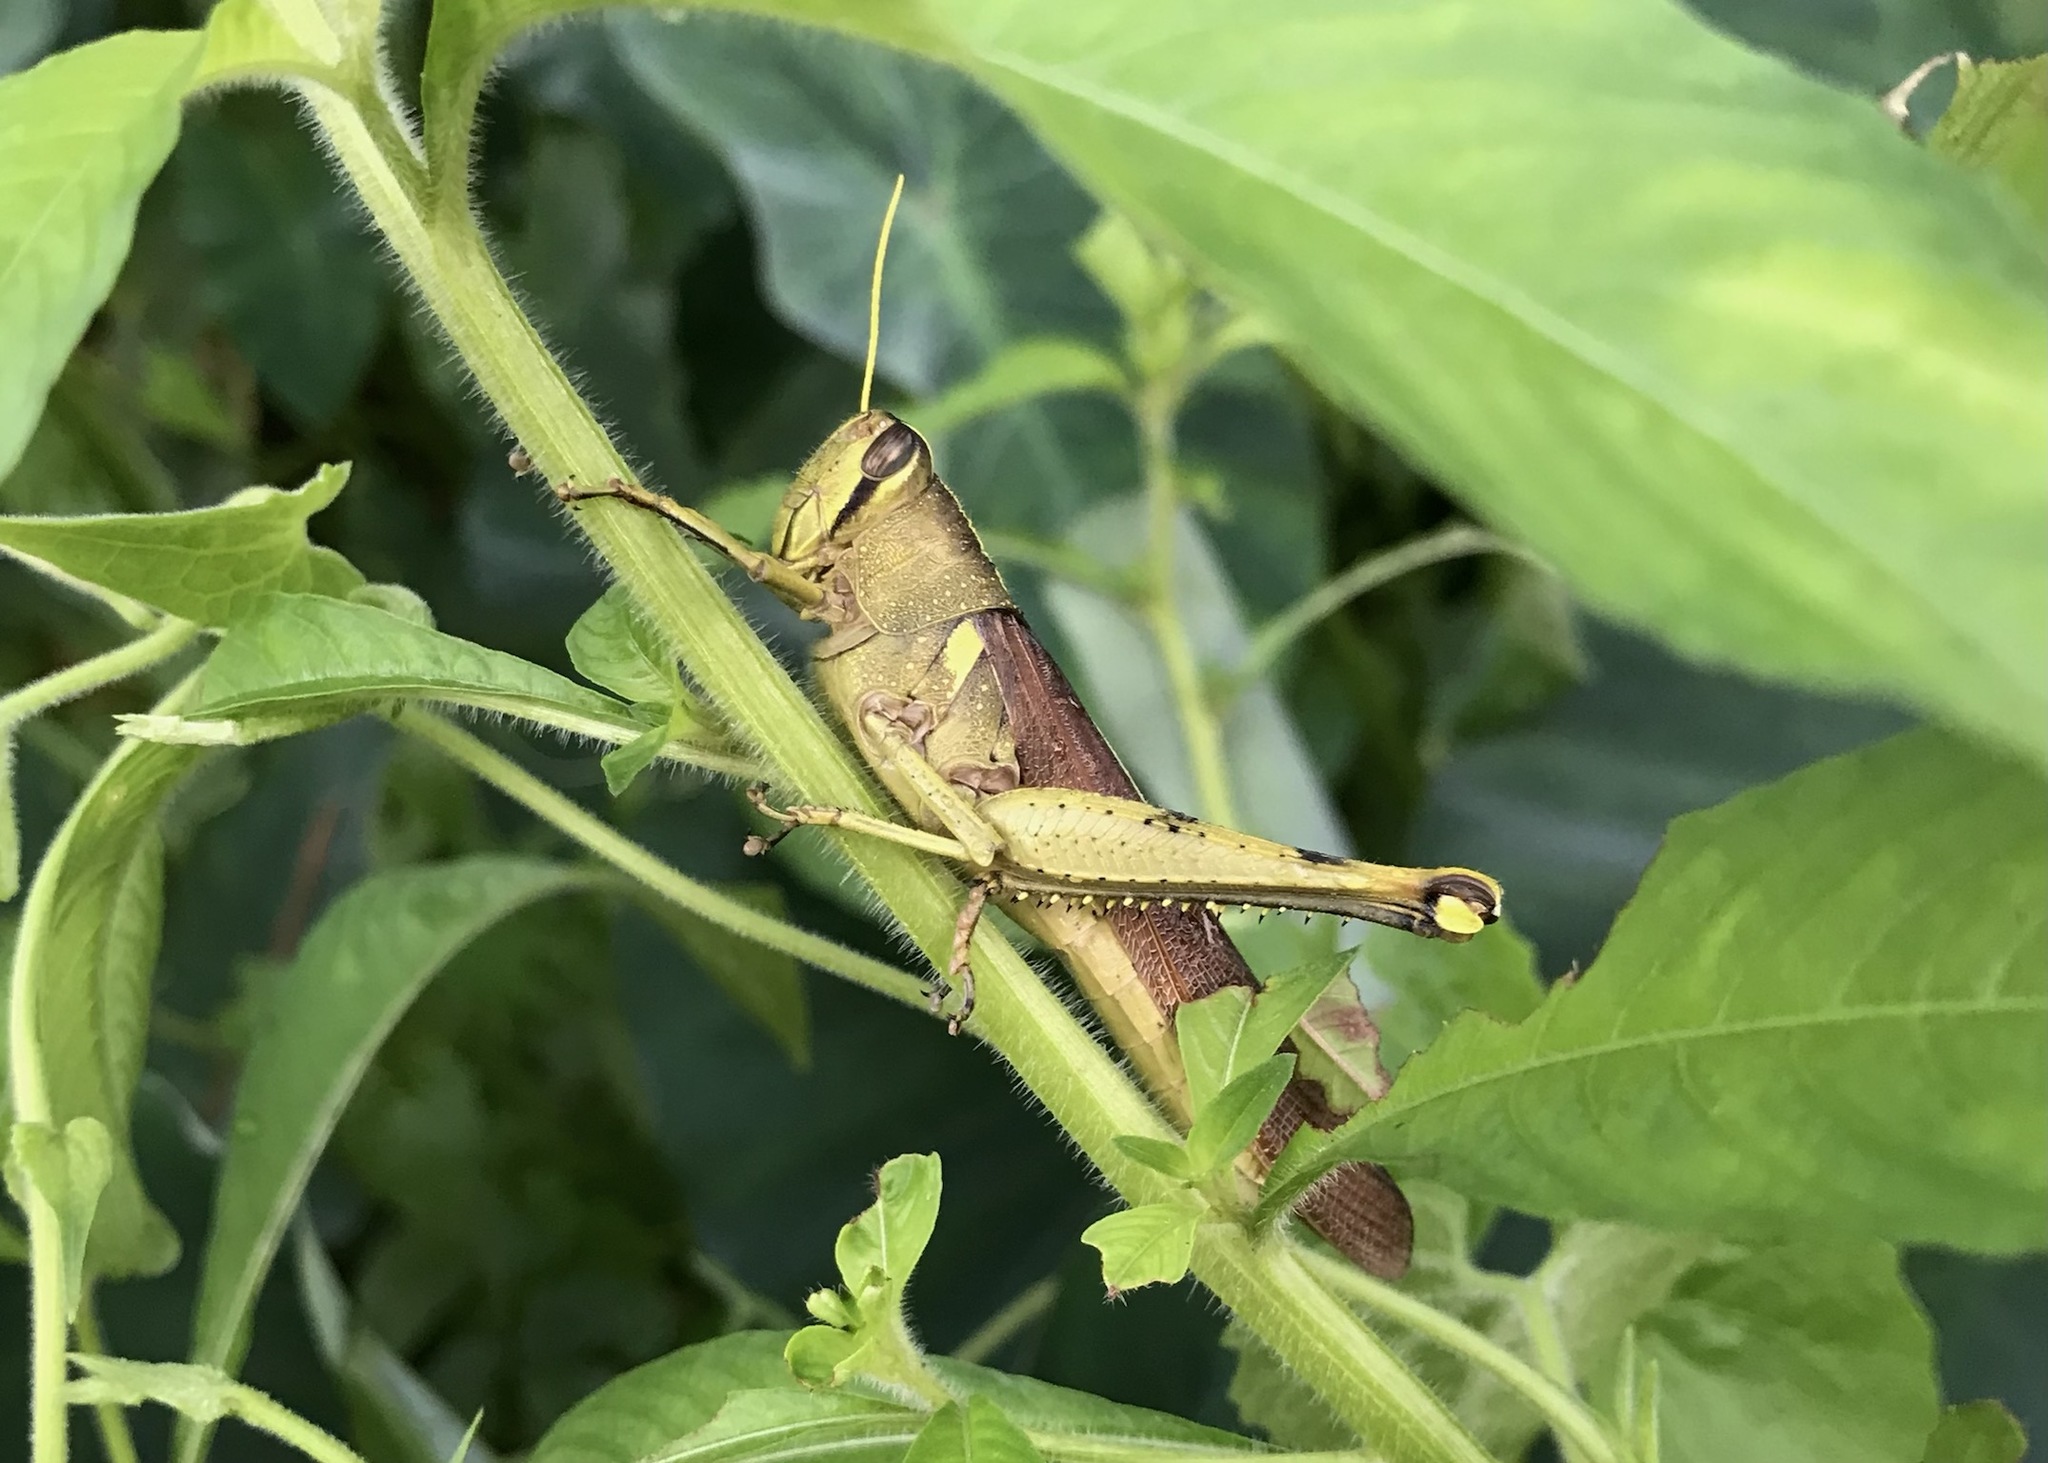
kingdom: Animalia
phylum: Arthropoda
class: Insecta
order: Orthoptera
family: Acrididae
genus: Schistocerca
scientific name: Schistocerca obscura
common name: Obscure bird grasshopper
